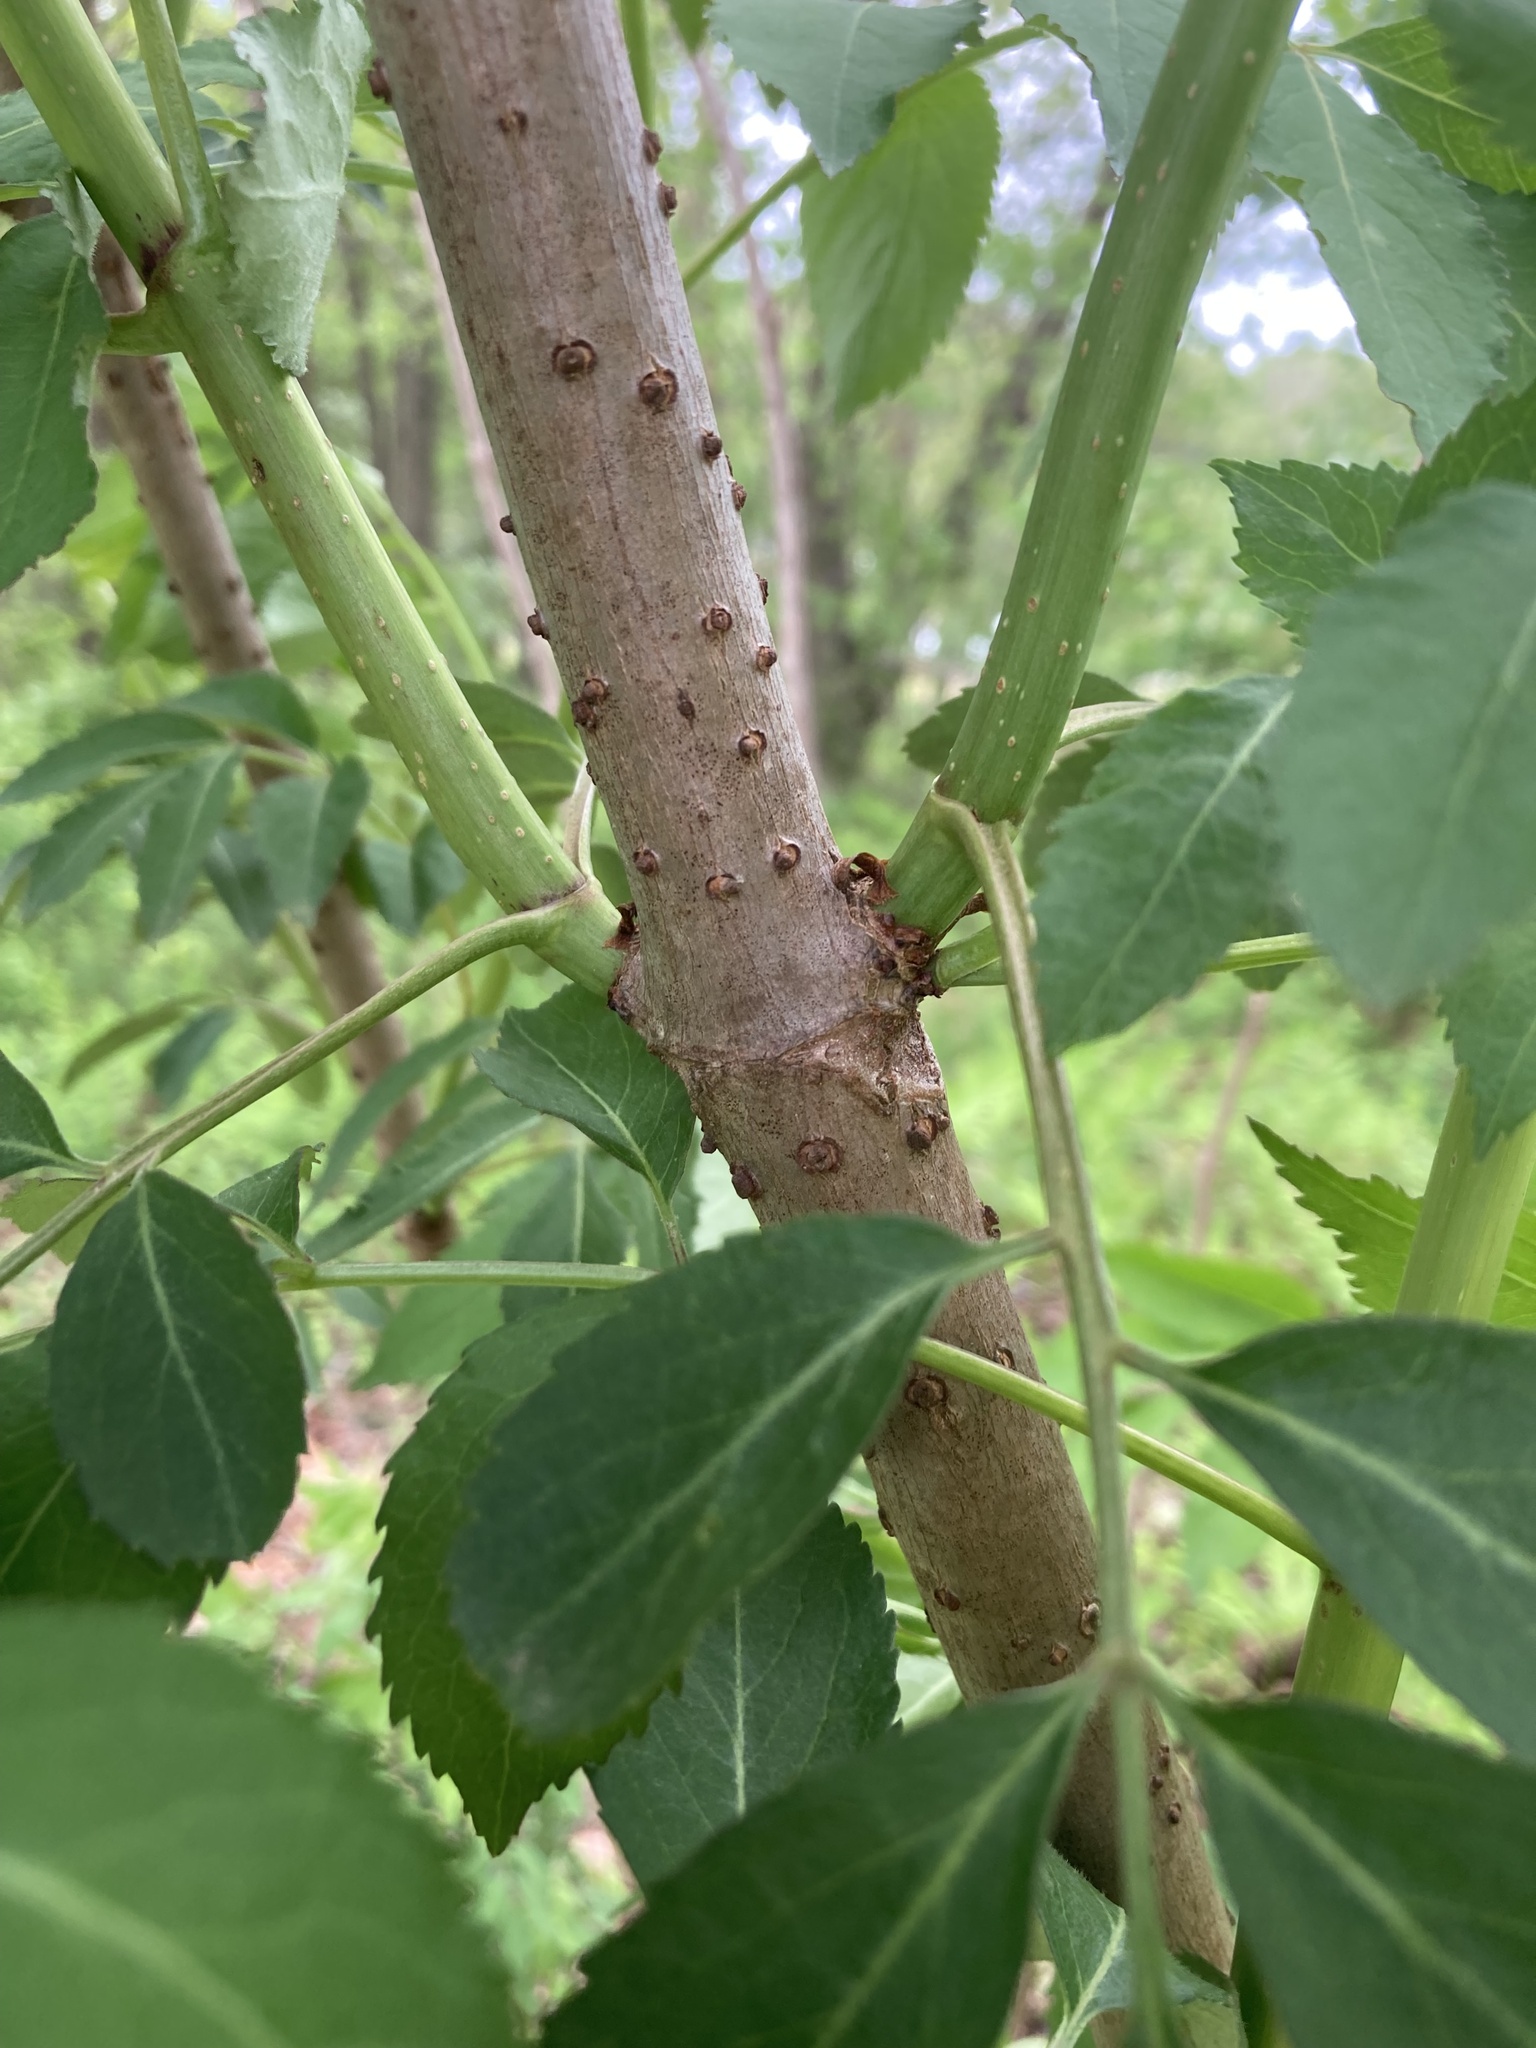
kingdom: Plantae
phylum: Tracheophyta
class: Magnoliopsida
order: Dipsacales
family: Viburnaceae
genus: Sambucus
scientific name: Sambucus canadensis
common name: American elder
